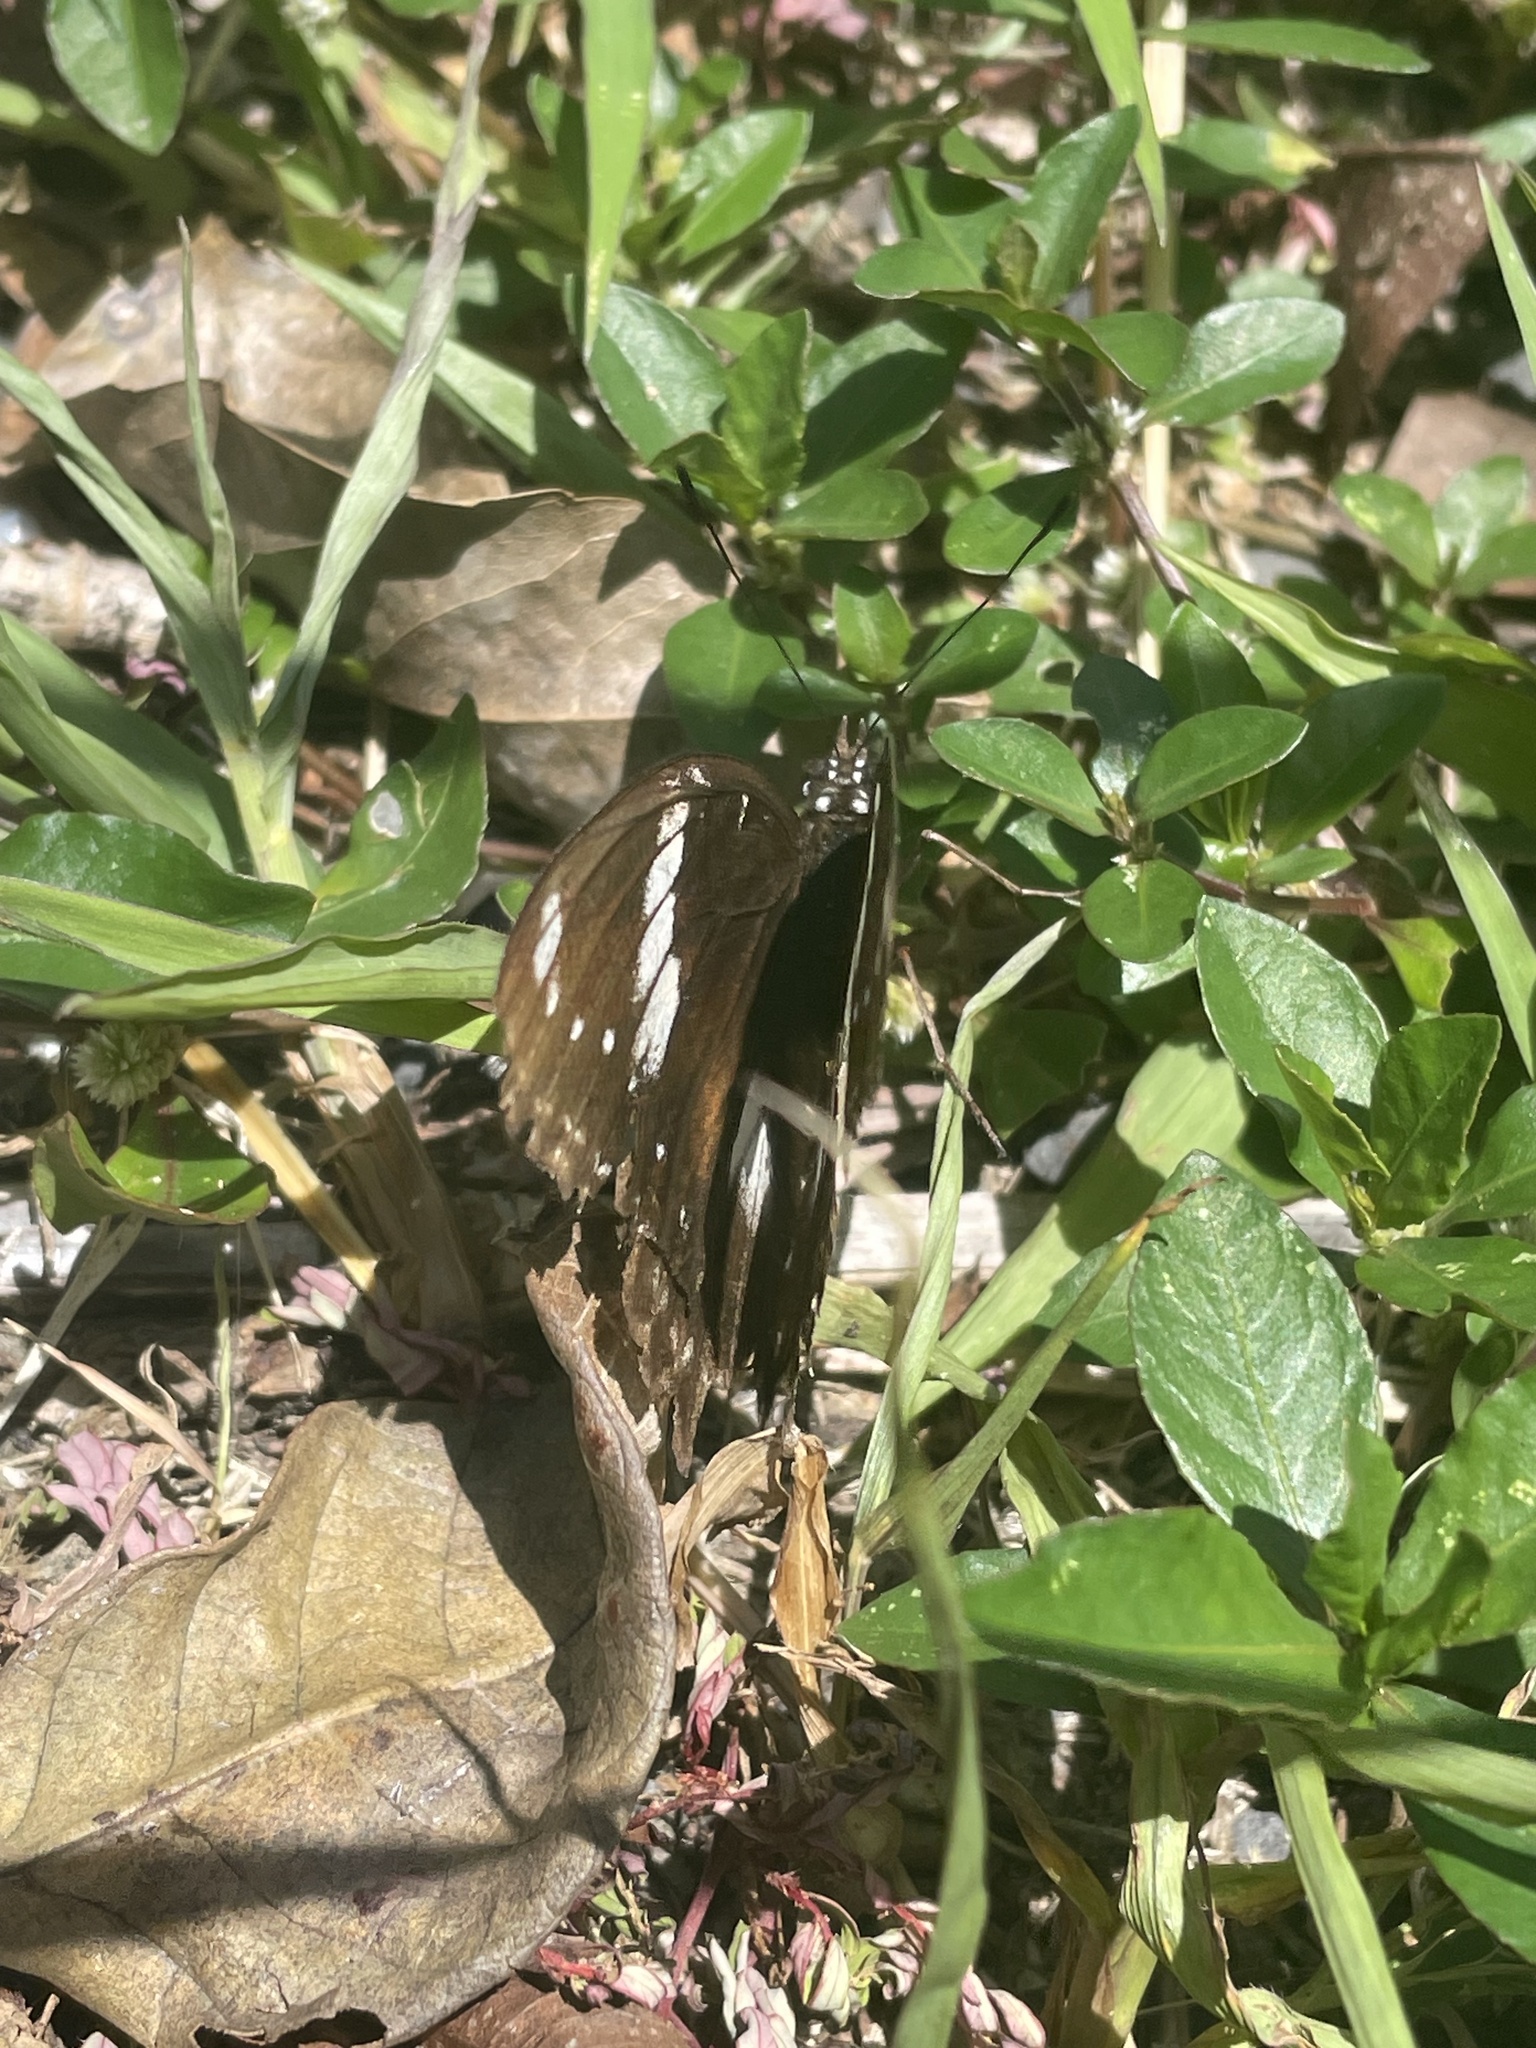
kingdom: Animalia
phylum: Arthropoda
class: Insecta
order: Lepidoptera
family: Nymphalidae
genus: Hypolimnas
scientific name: Hypolimnas bolina
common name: Great eggfly
